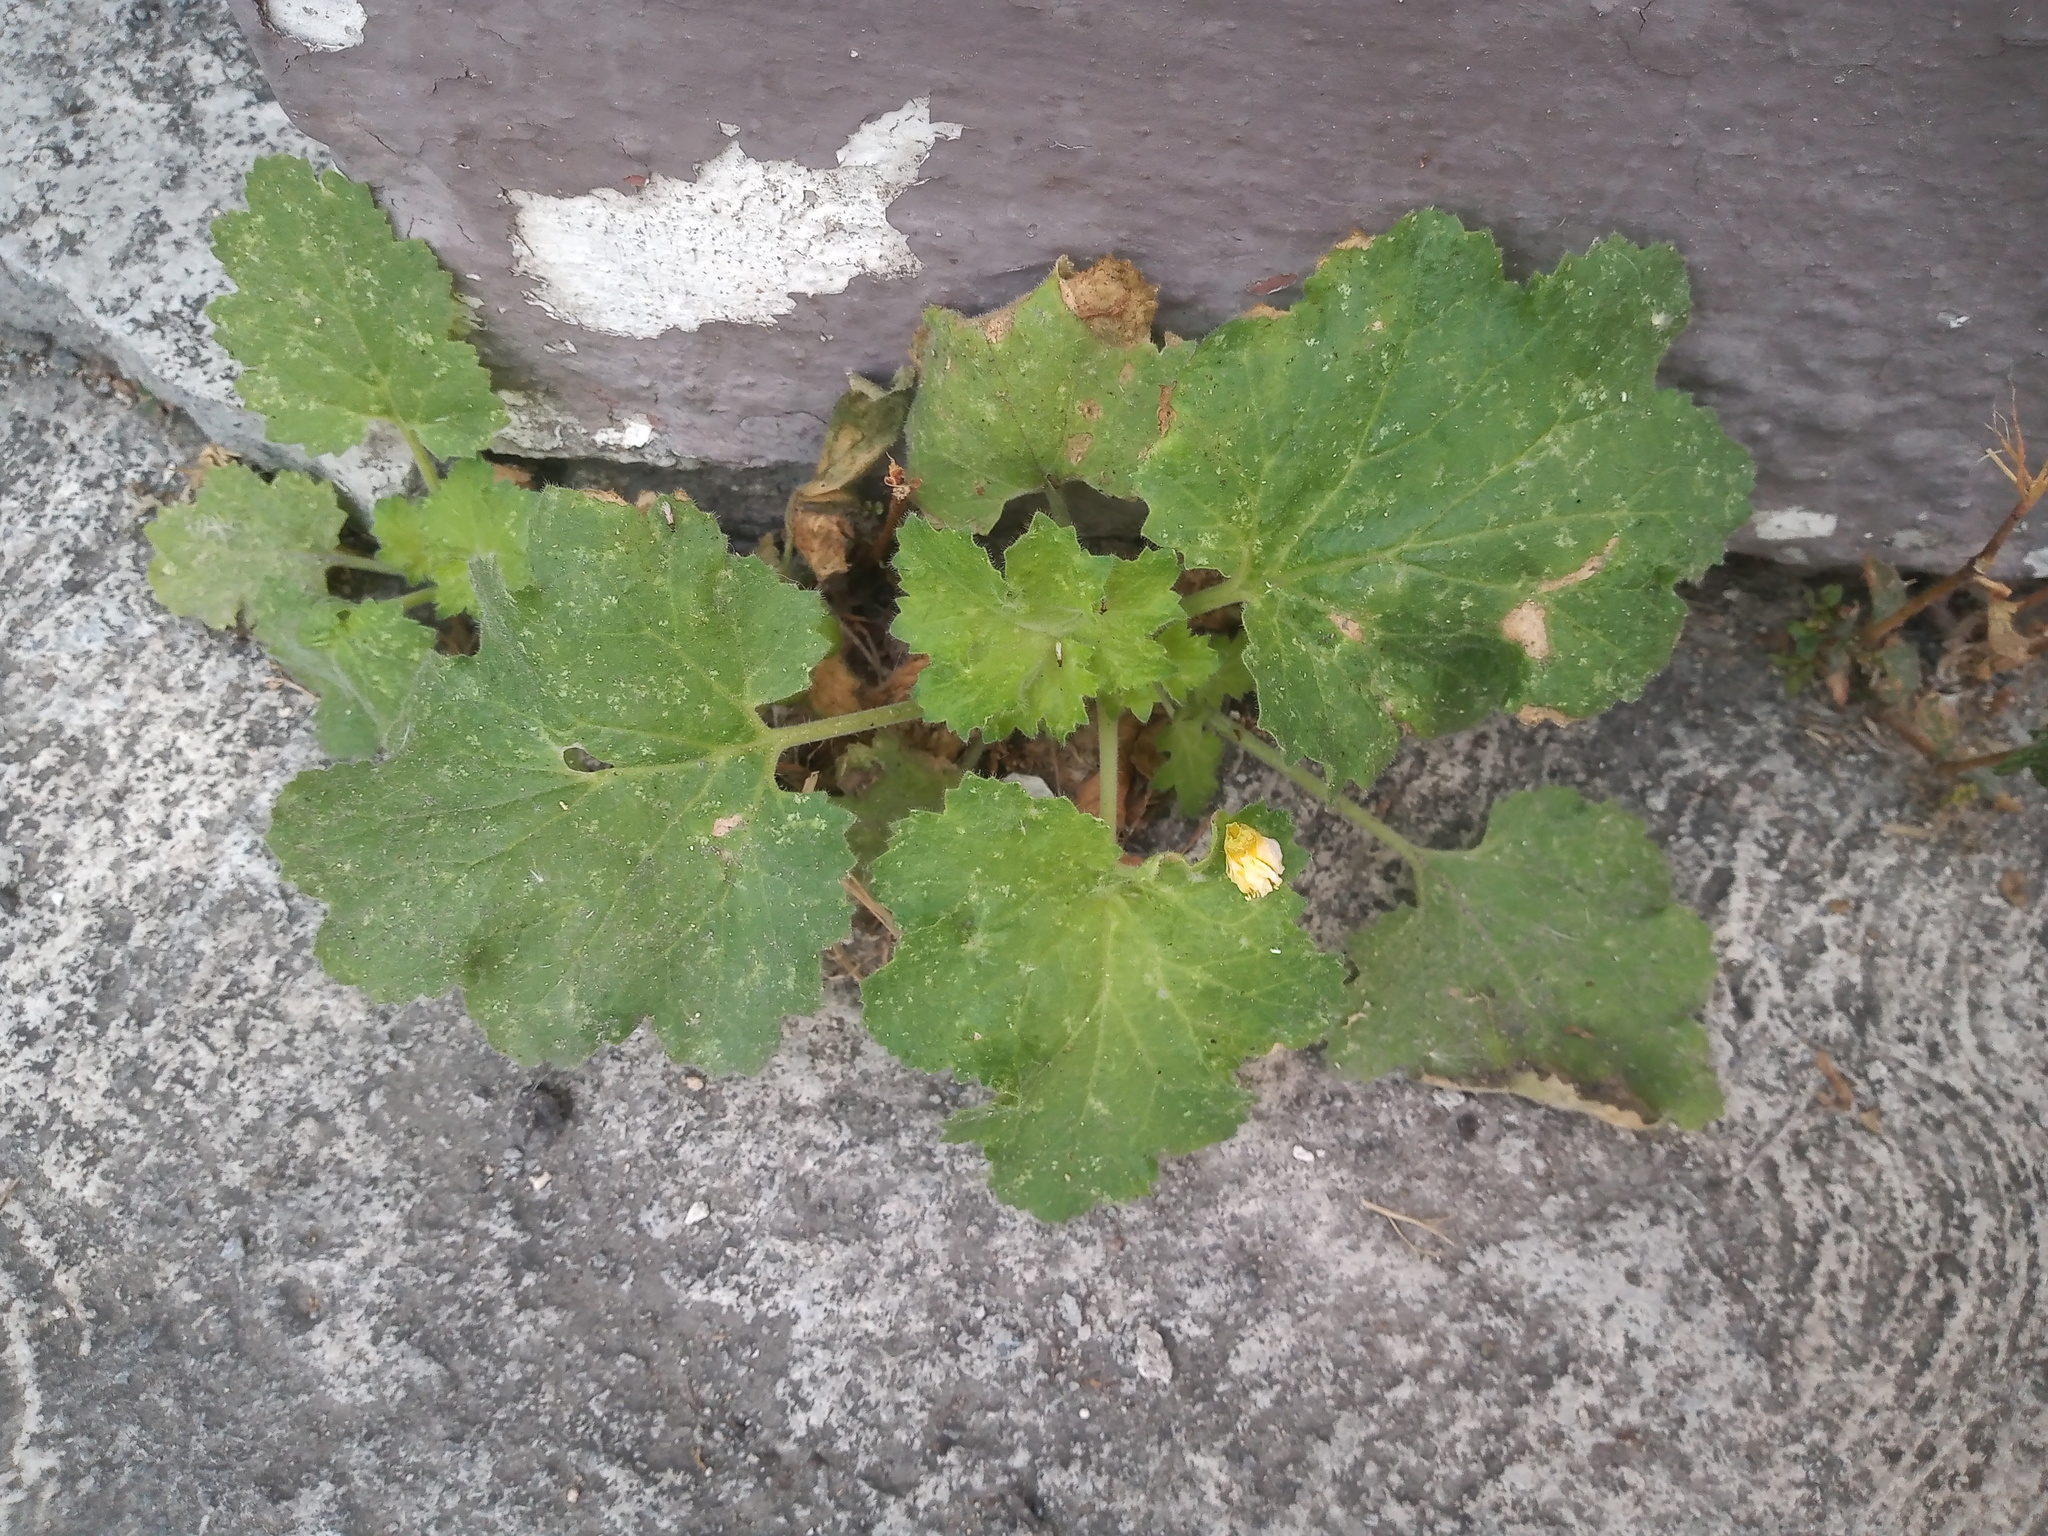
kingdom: Plantae
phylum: Tracheophyta
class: Magnoliopsida
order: Cornales
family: Loasaceae
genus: Eucnide
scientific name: Eucnide lobata
